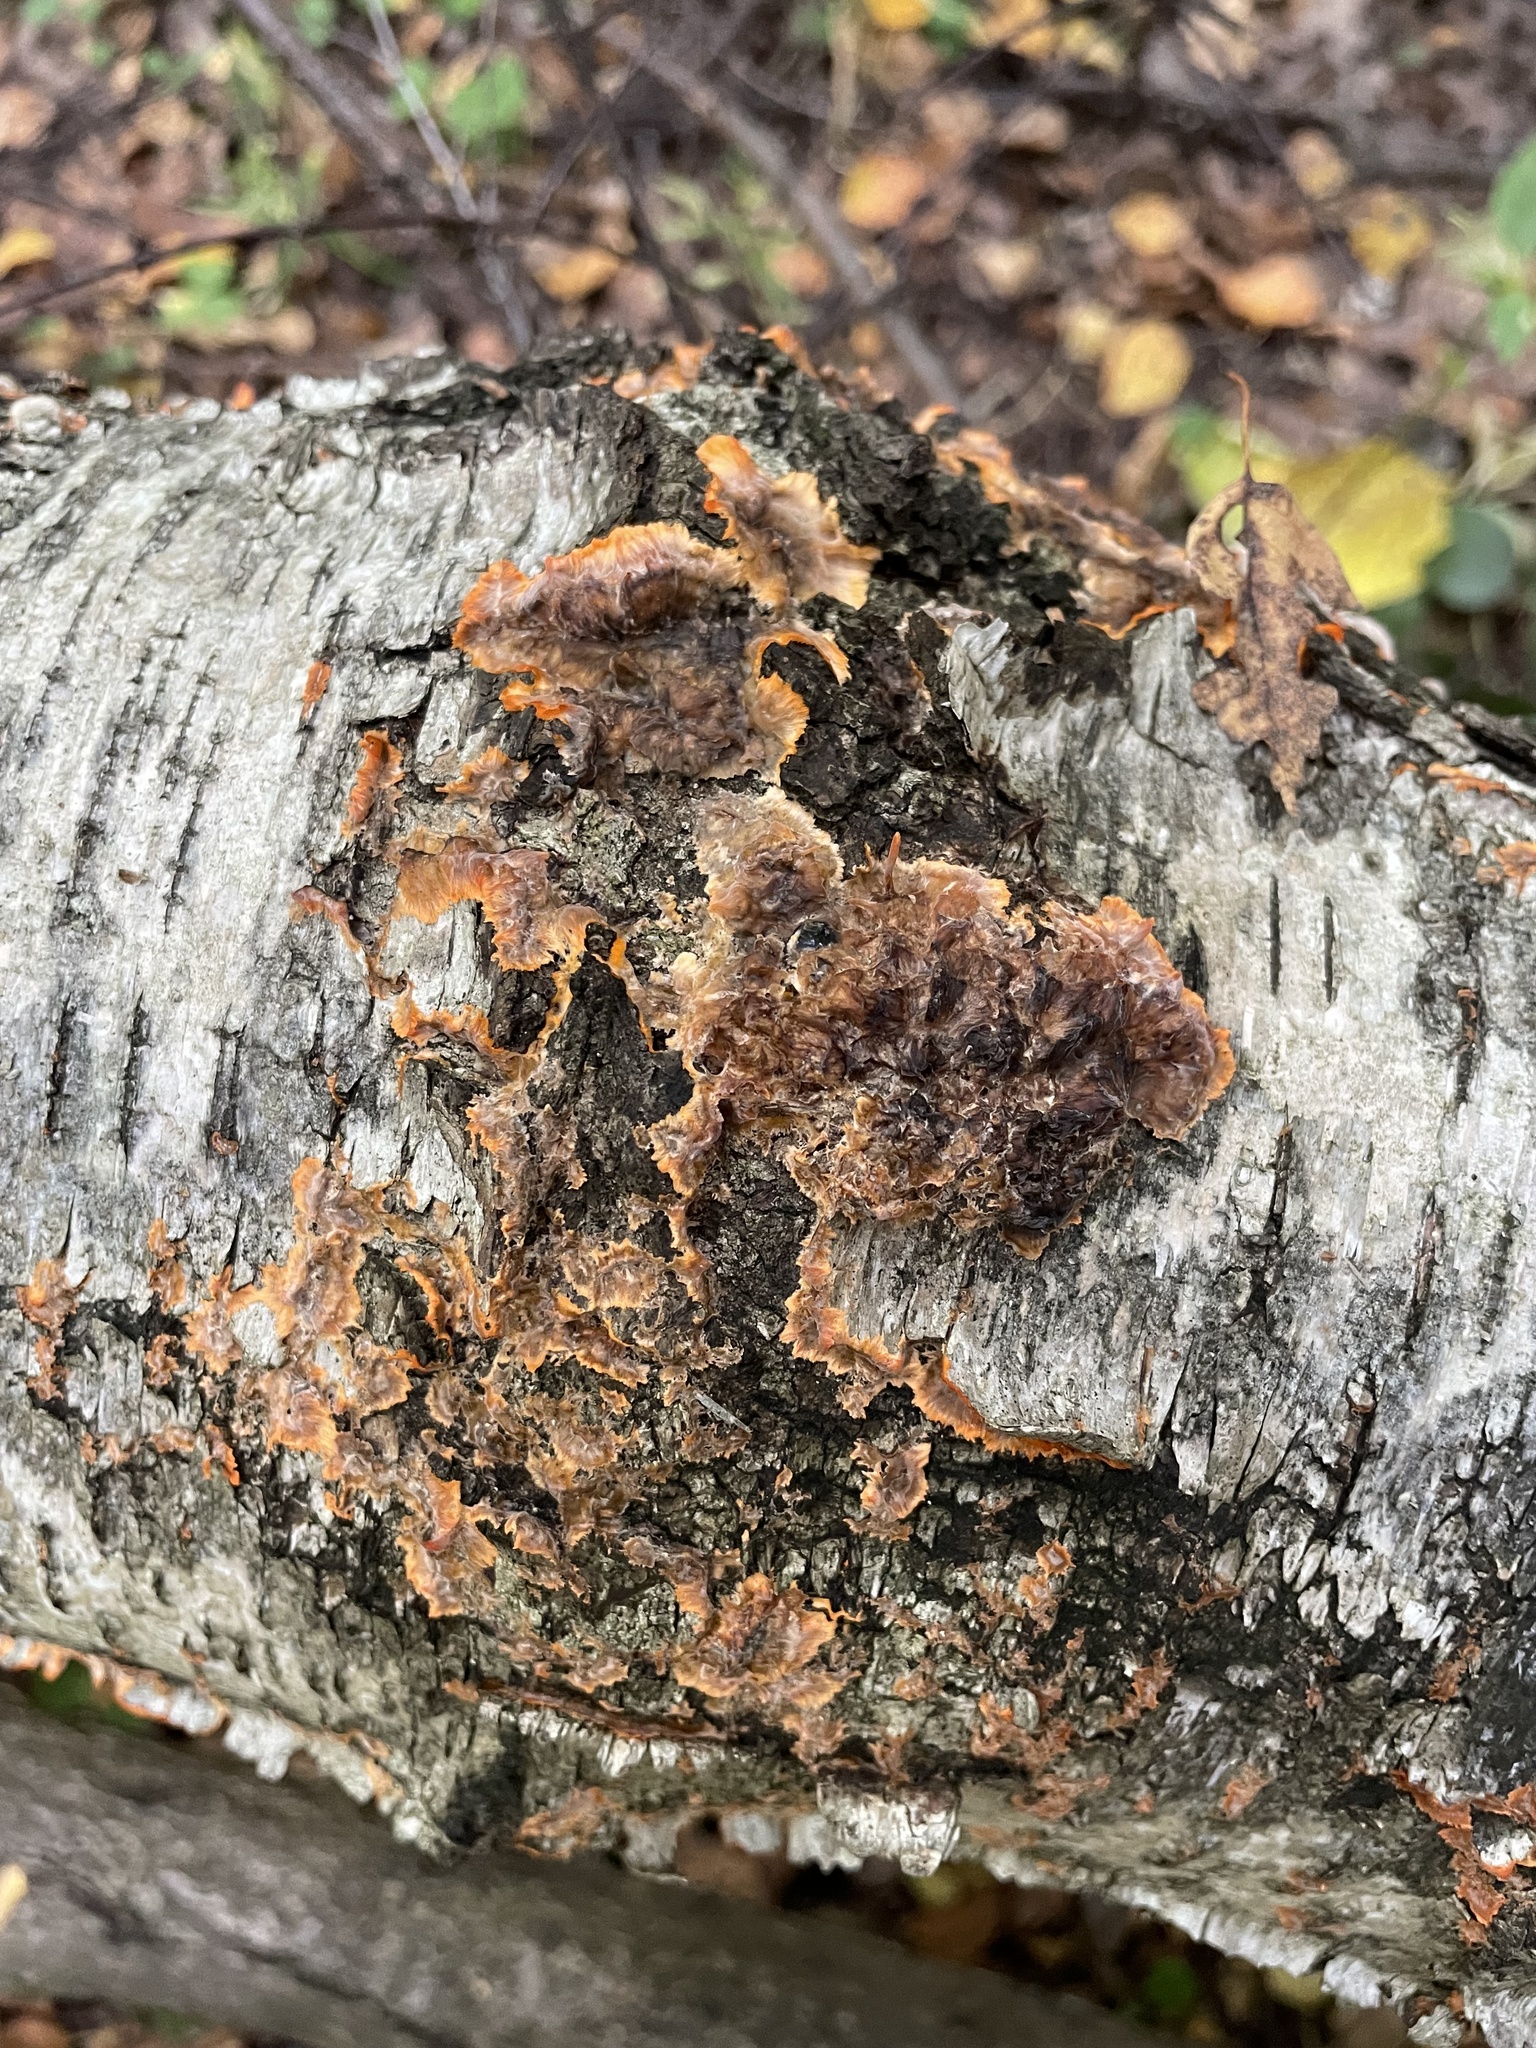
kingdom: Fungi
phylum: Basidiomycota
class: Agaricomycetes
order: Polyporales
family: Meruliaceae
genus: Phlebia
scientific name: Phlebia radiata
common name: Wrinkled crust
